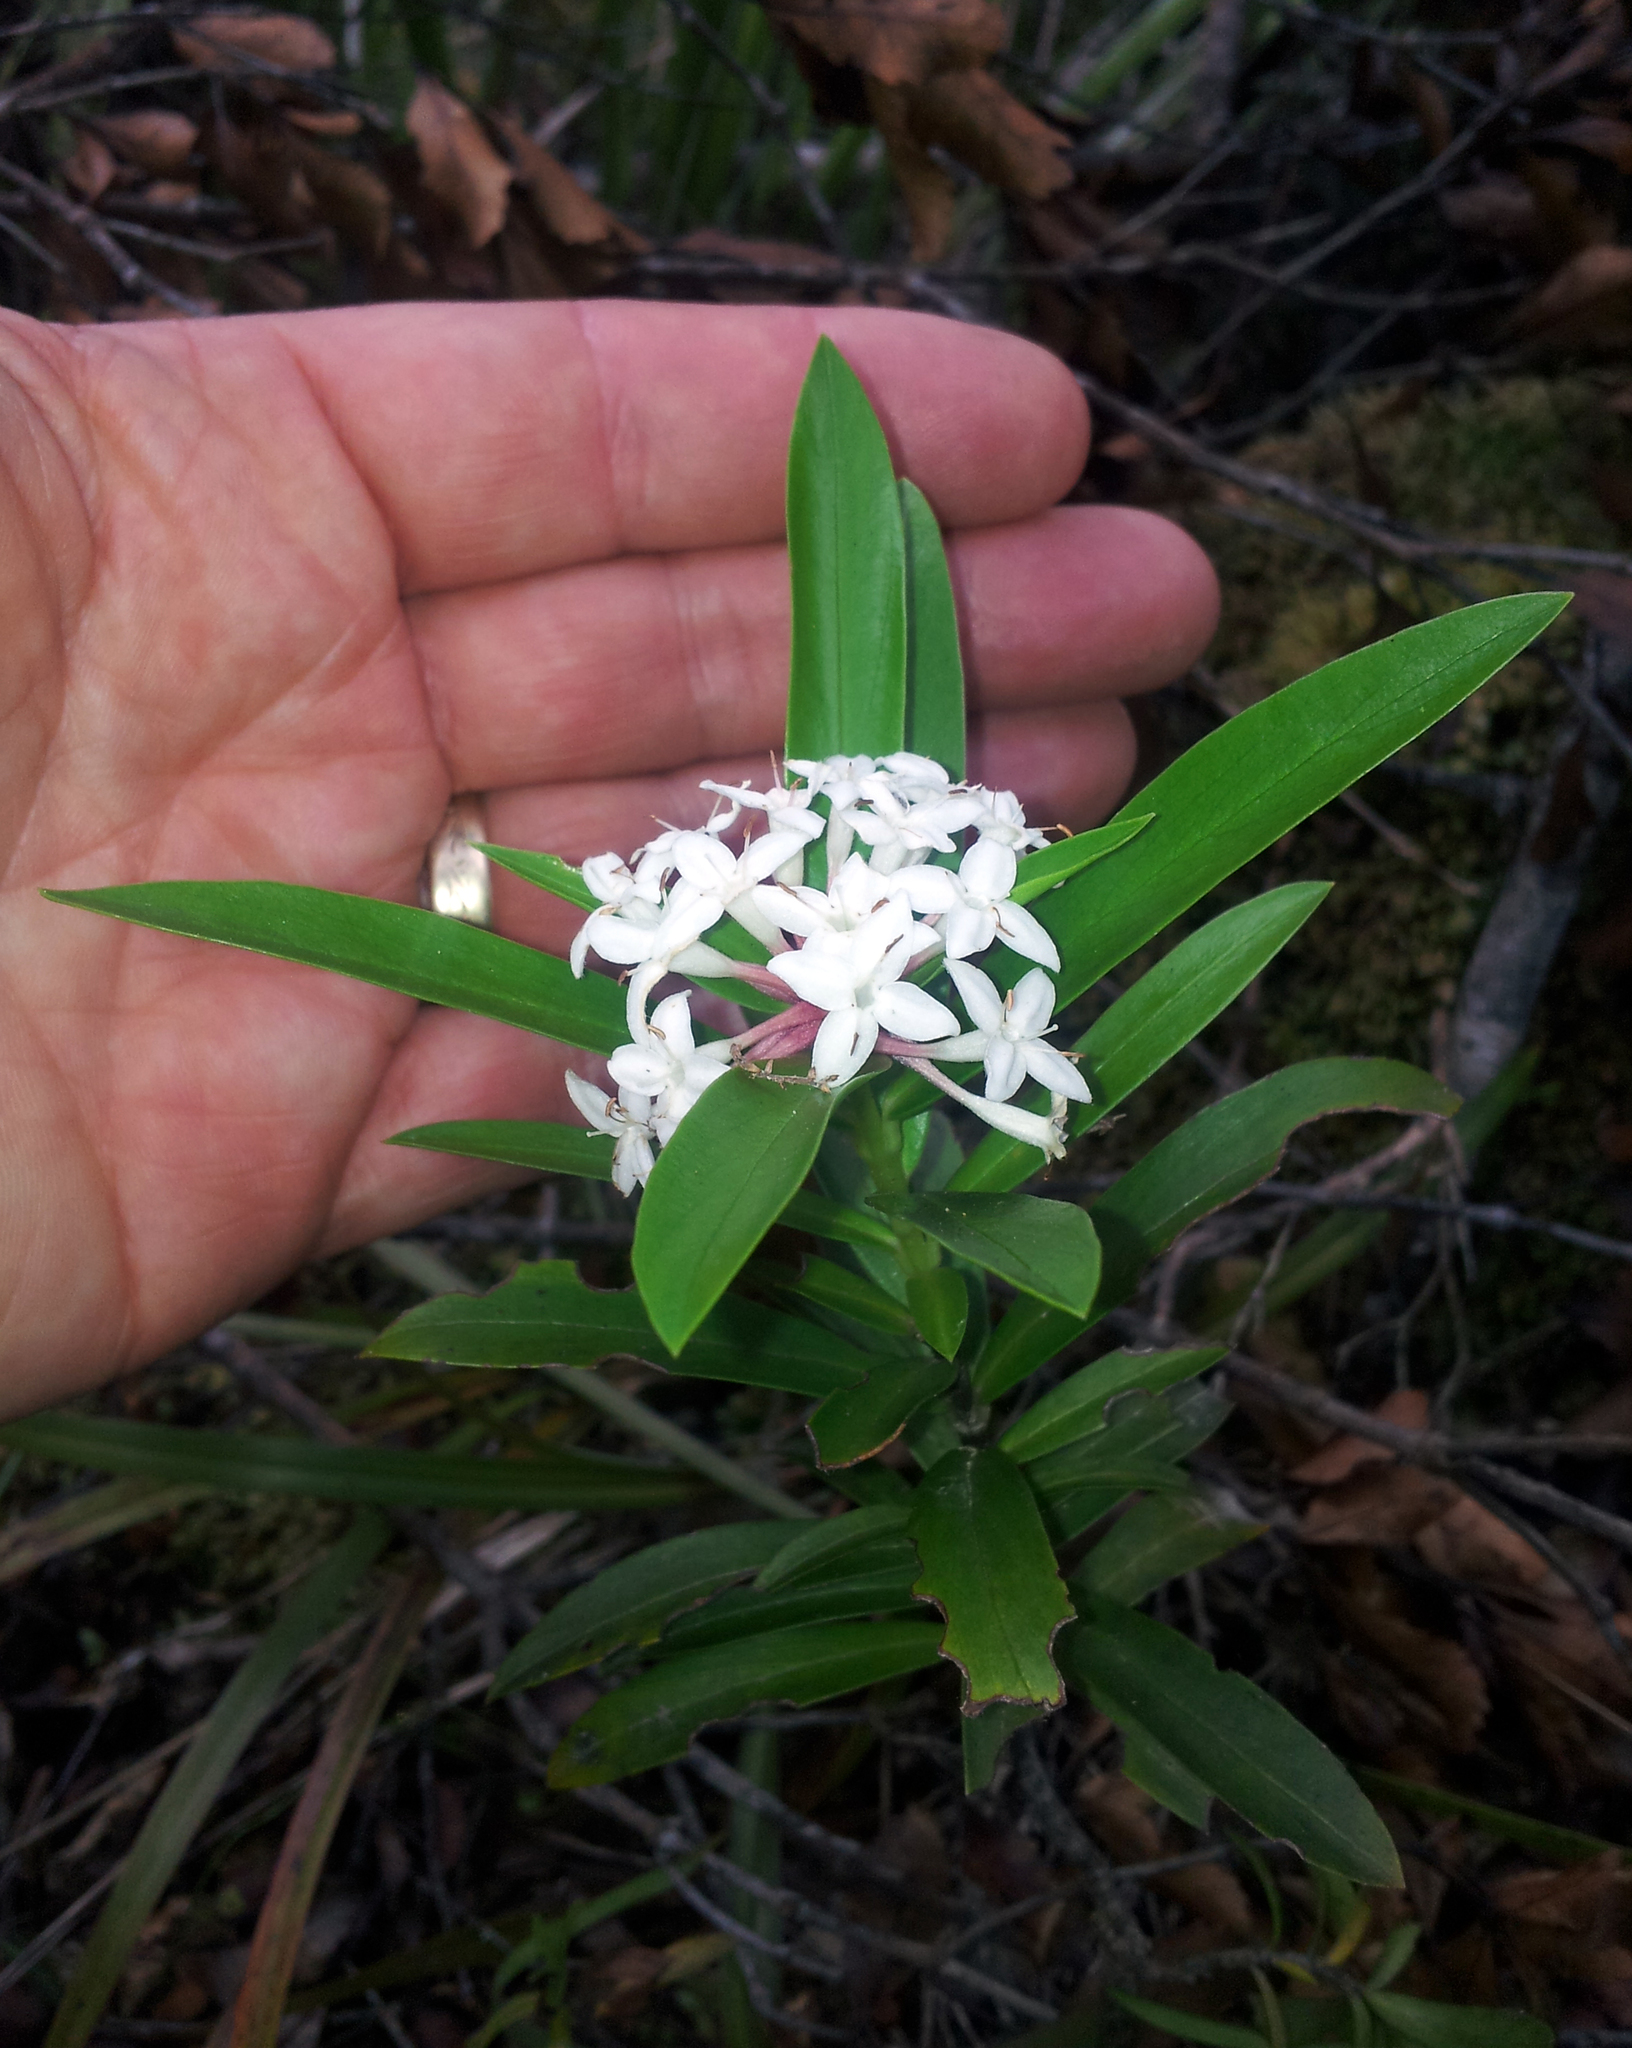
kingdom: Plantae
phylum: Tracheophyta
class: Magnoliopsida
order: Malvales
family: Thymelaeaceae
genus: Pimelea
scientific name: Pimelea longifolia
